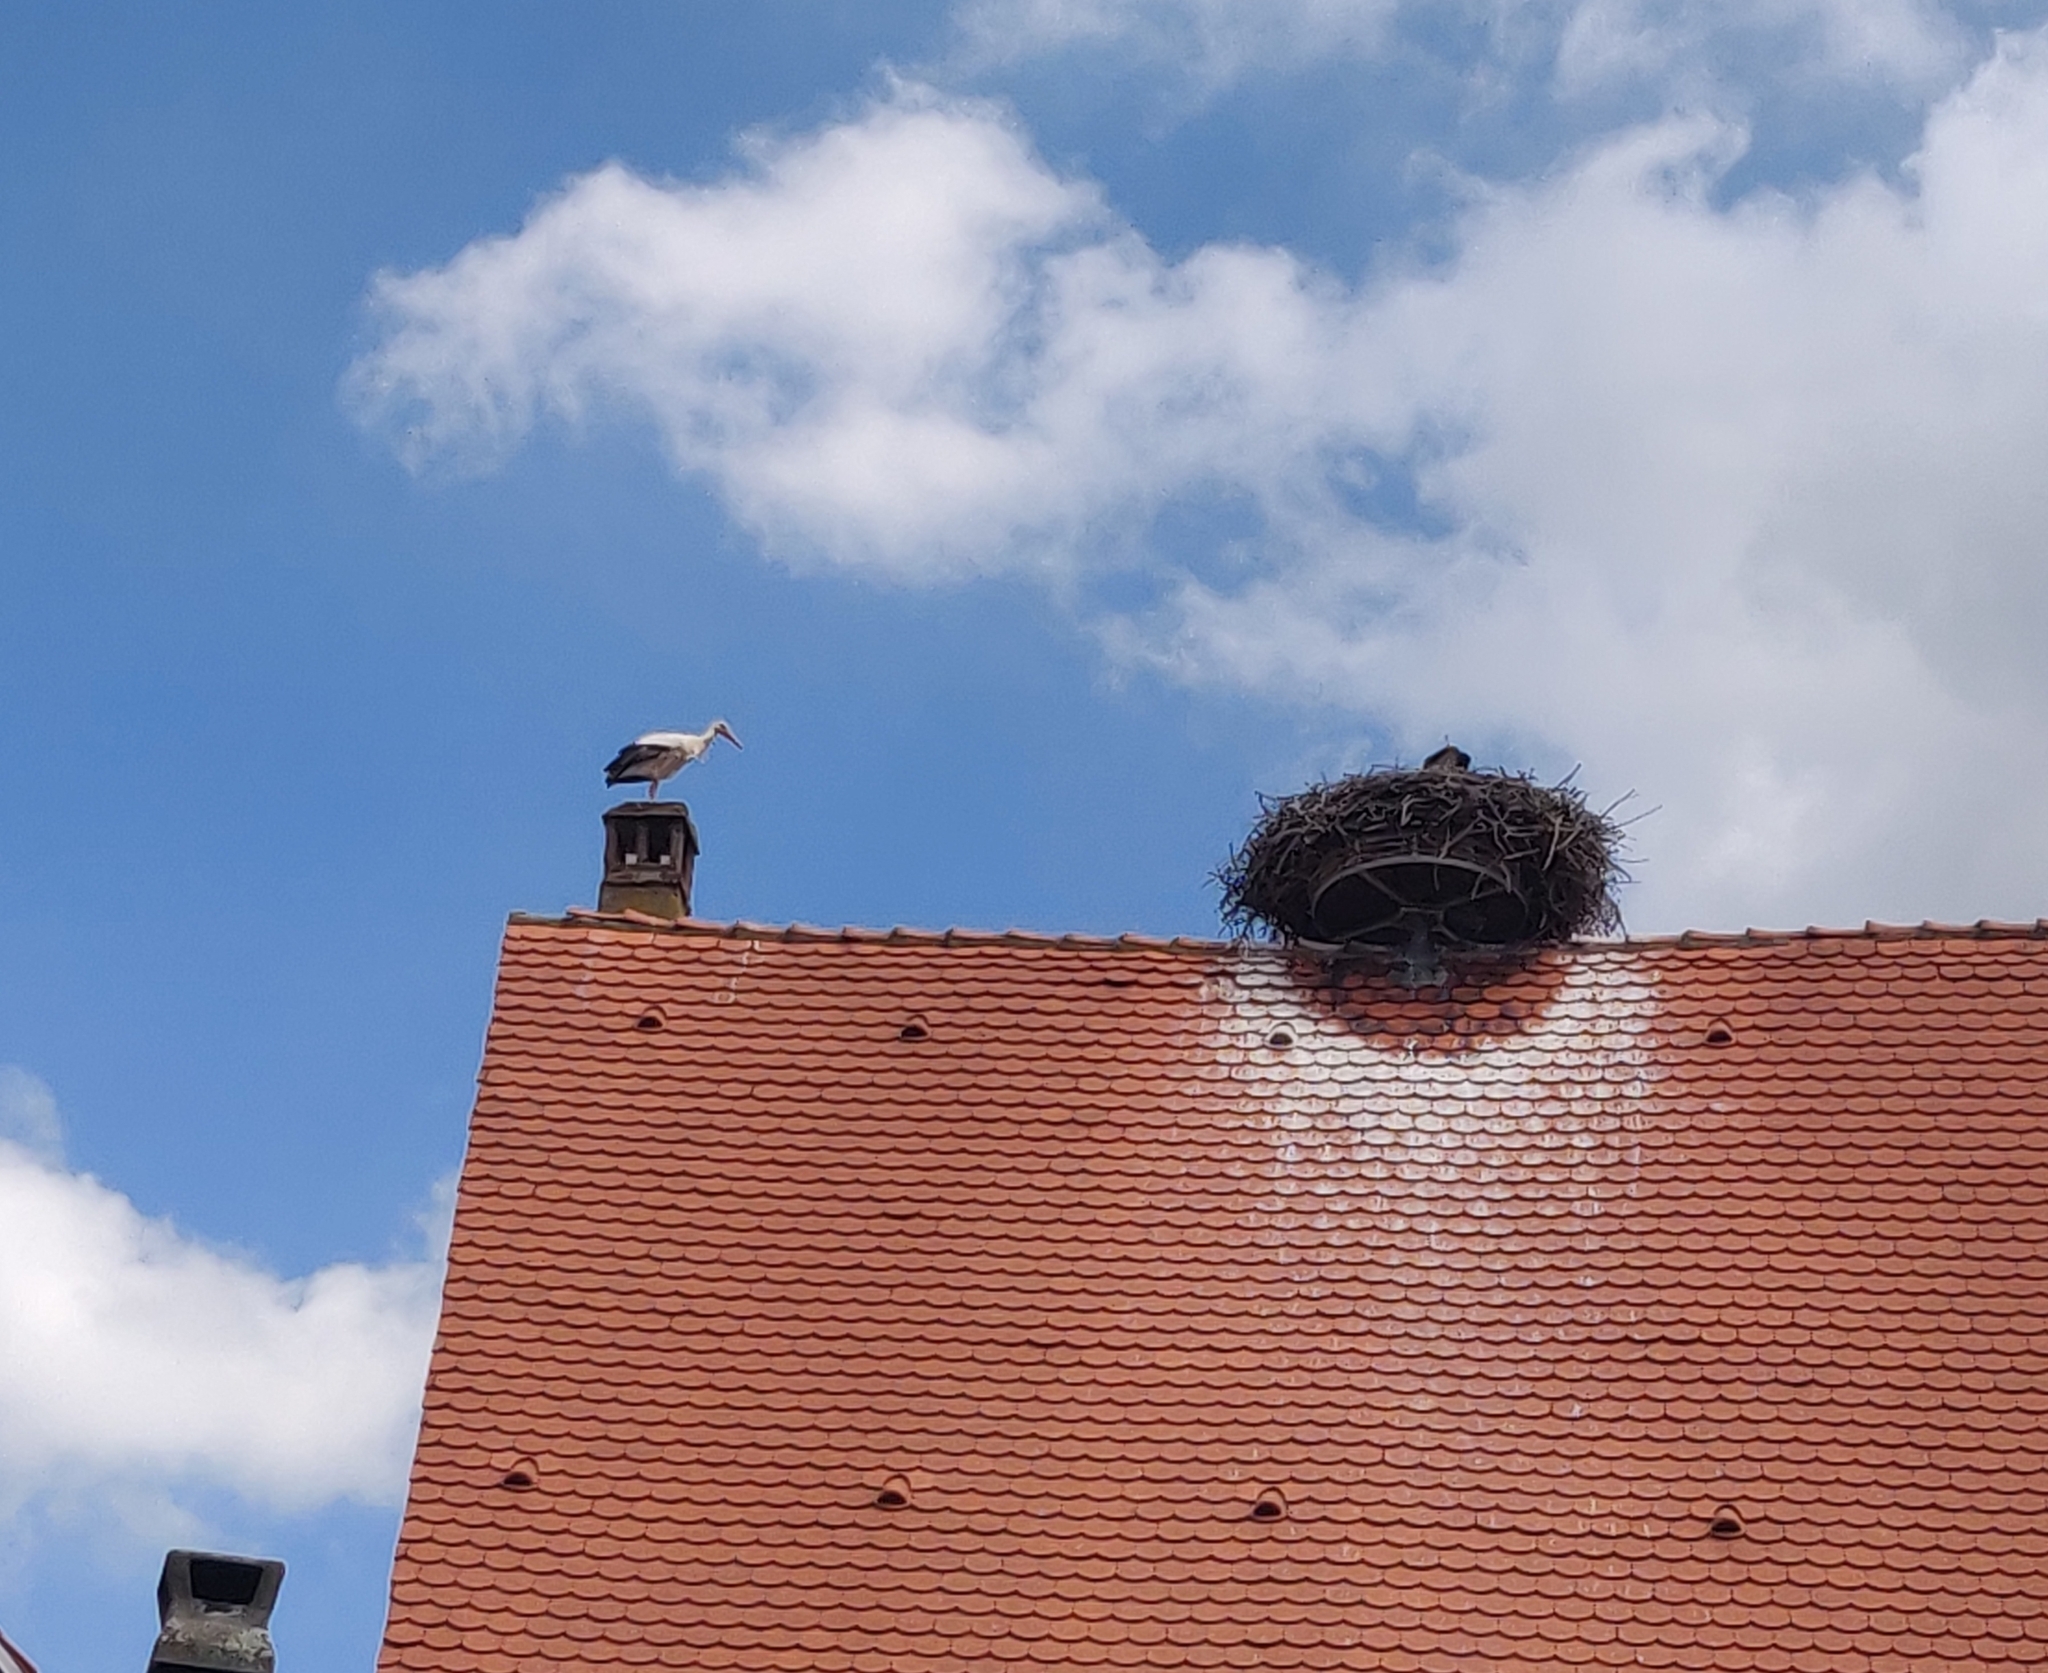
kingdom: Animalia
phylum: Chordata
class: Aves
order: Ciconiiformes
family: Ciconiidae
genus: Ciconia
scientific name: Ciconia ciconia
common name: White stork
